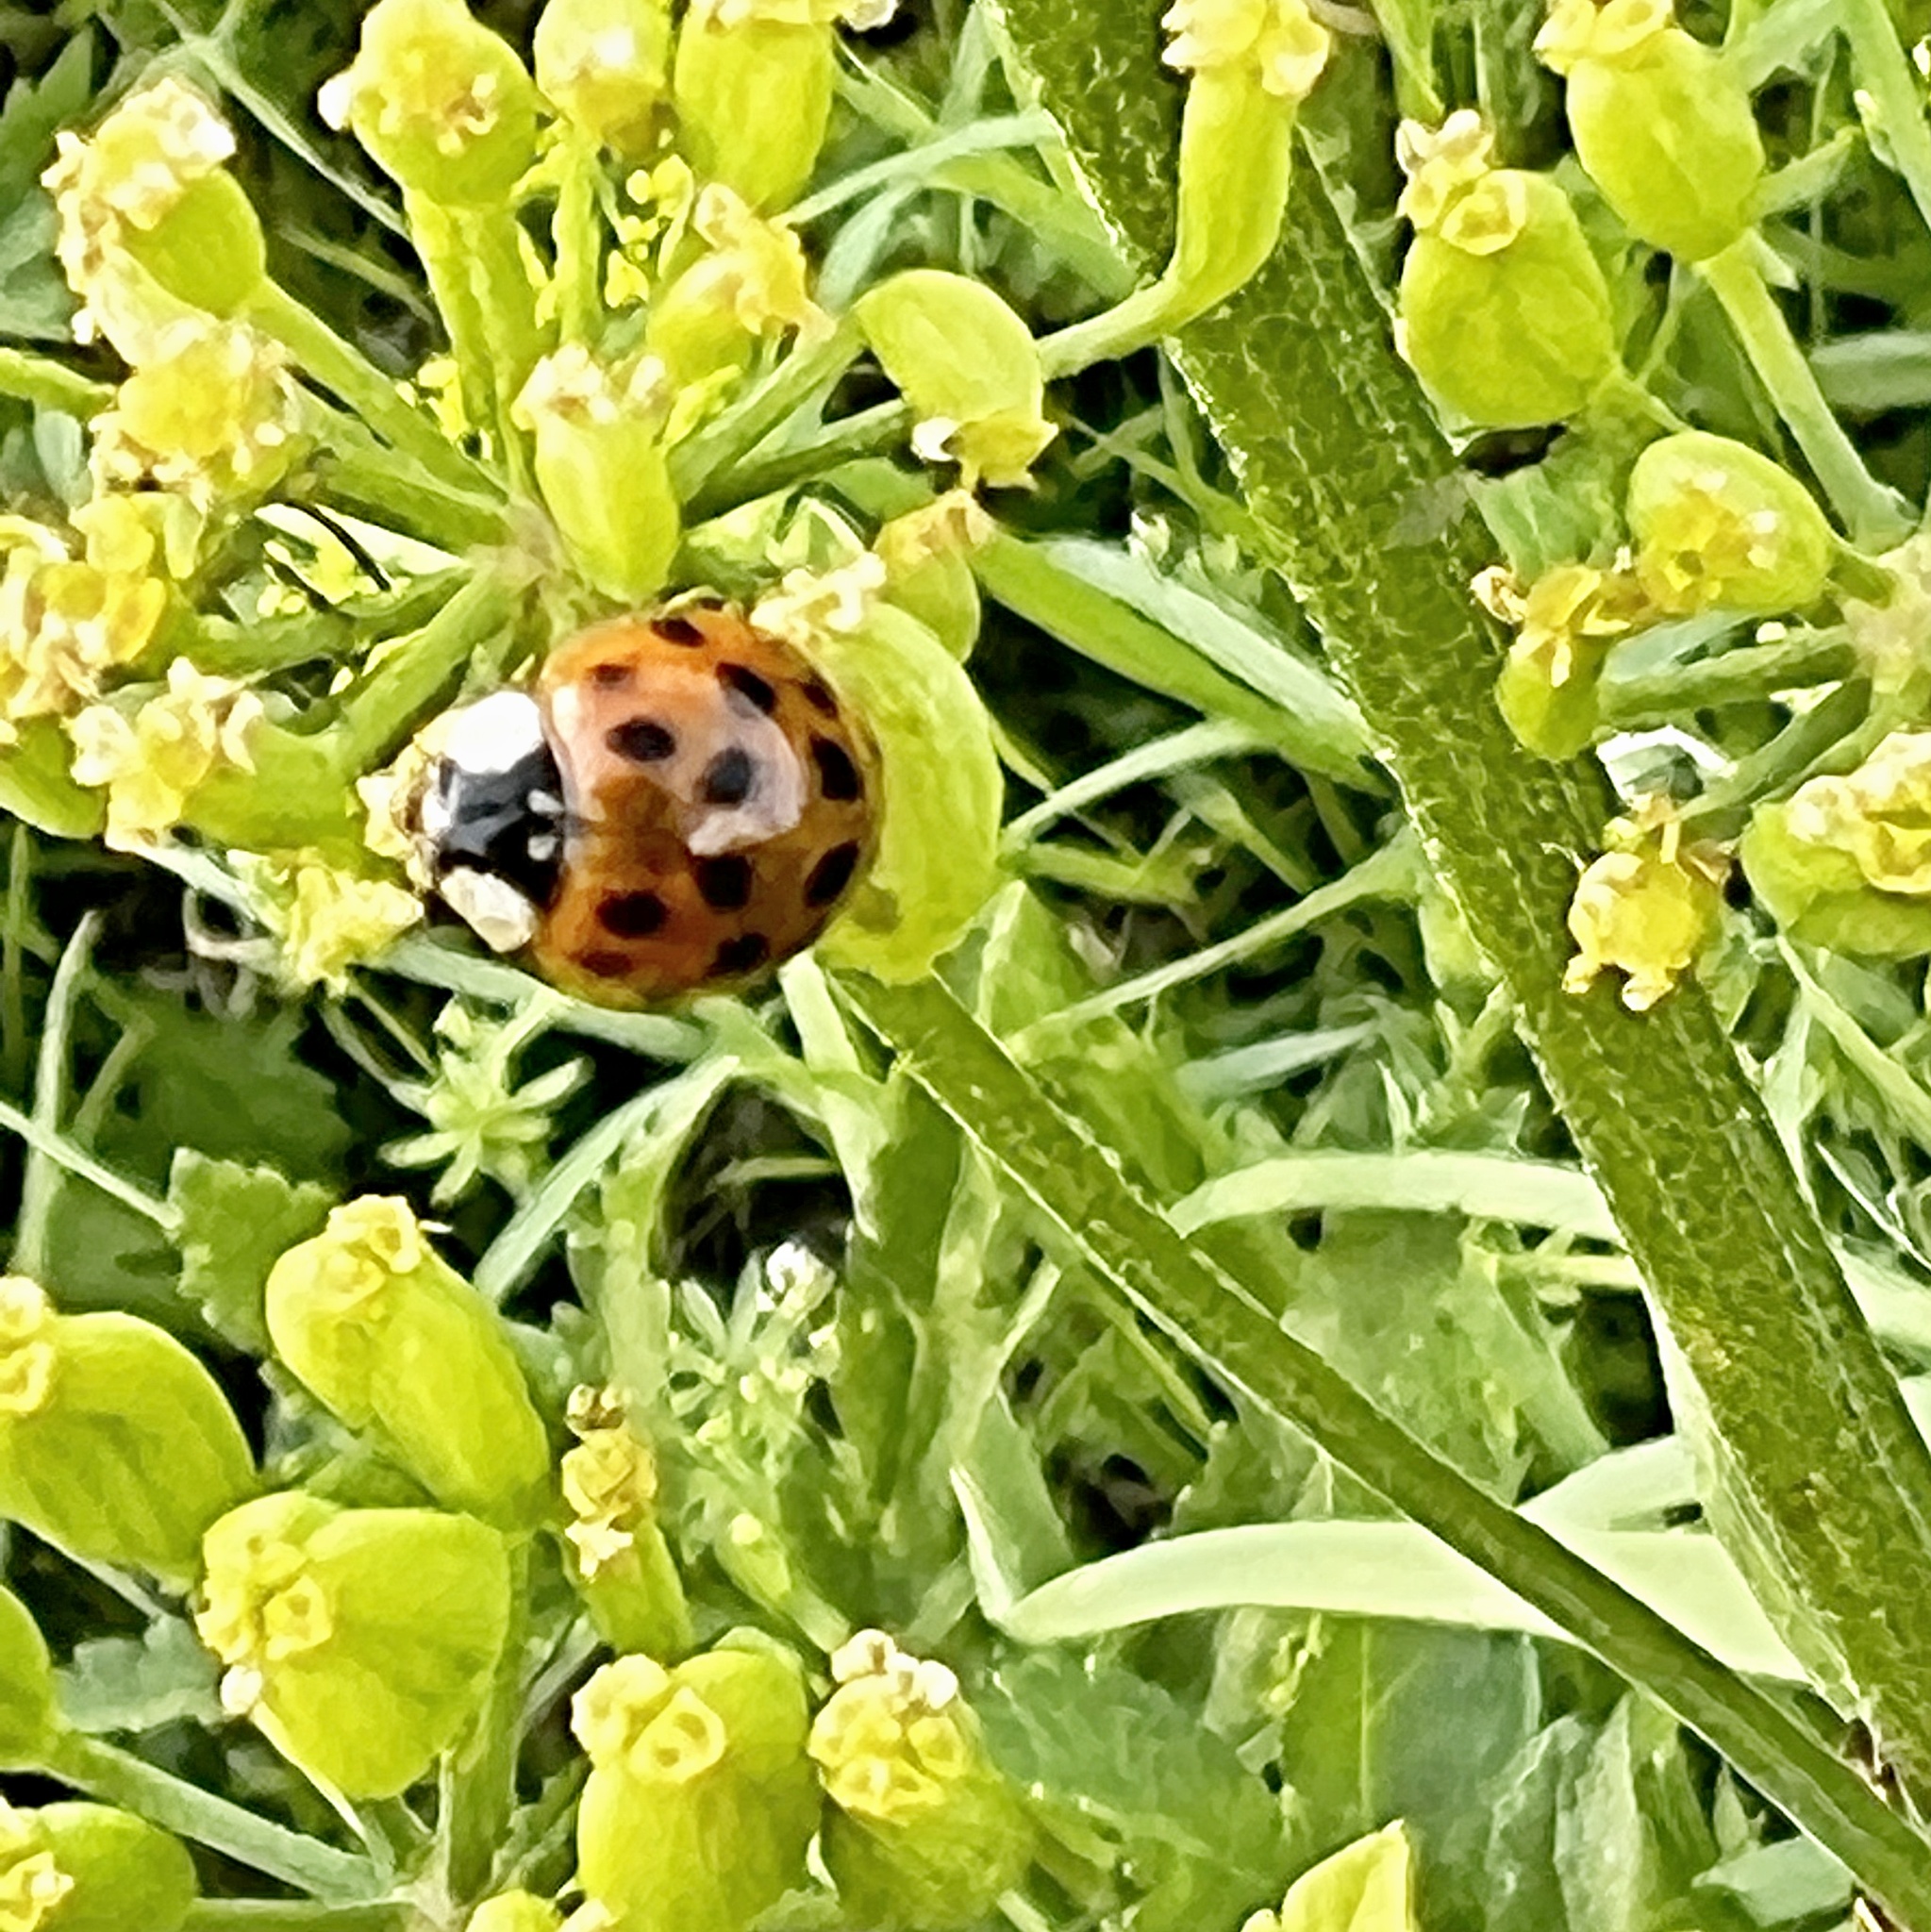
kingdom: Animalia
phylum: Arthropoda
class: Insecta
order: Coleoptera
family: Coccinellidae
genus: Harmonia
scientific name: Harmonia axyridis
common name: Harlequin ladybird
